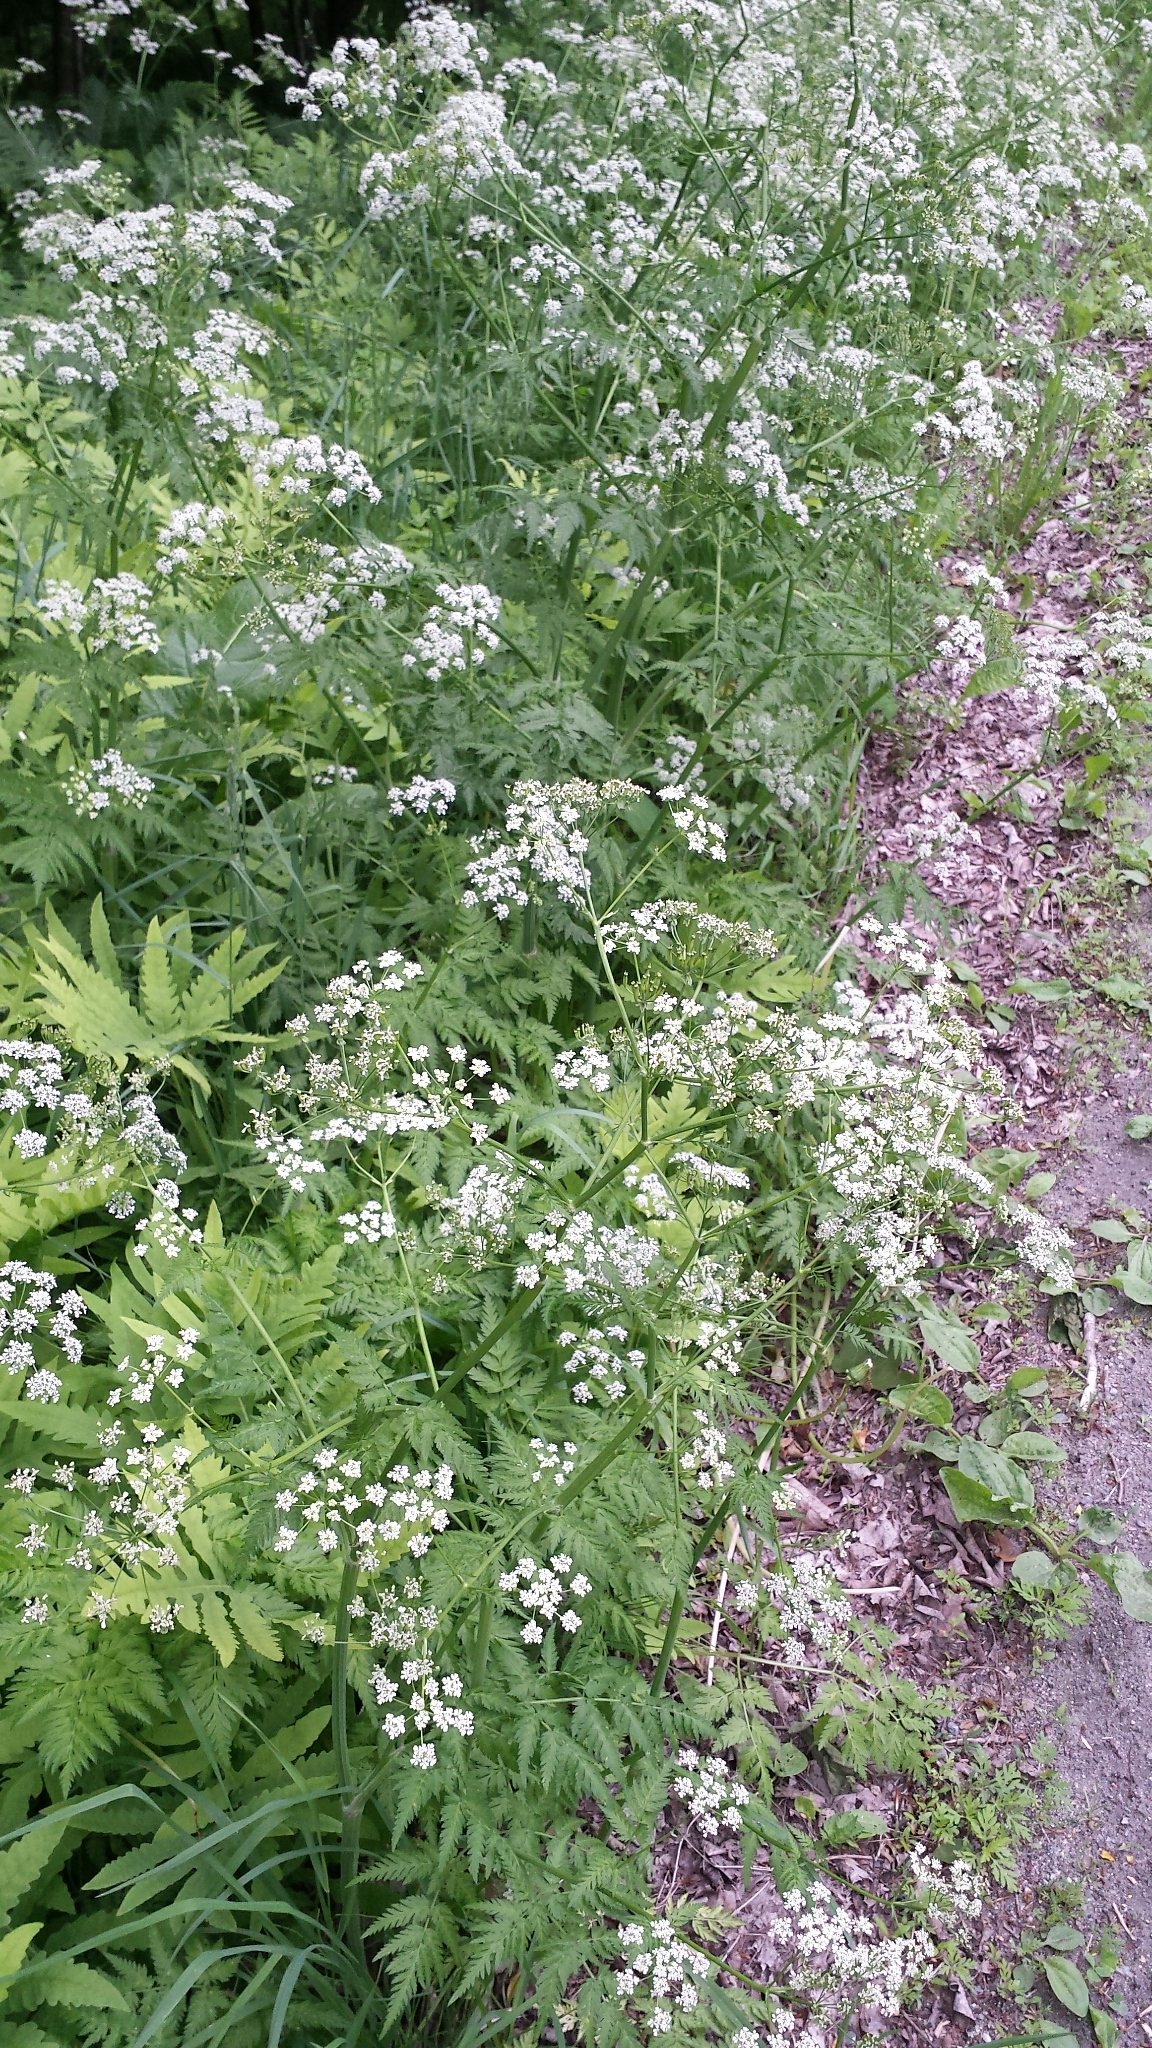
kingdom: Plantae
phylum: Tracheophyta
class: Magnoliopsida
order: Apiales
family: Apiaceae
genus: Anthriscus
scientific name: Anthriscus sylvestris
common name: Cow parsley
